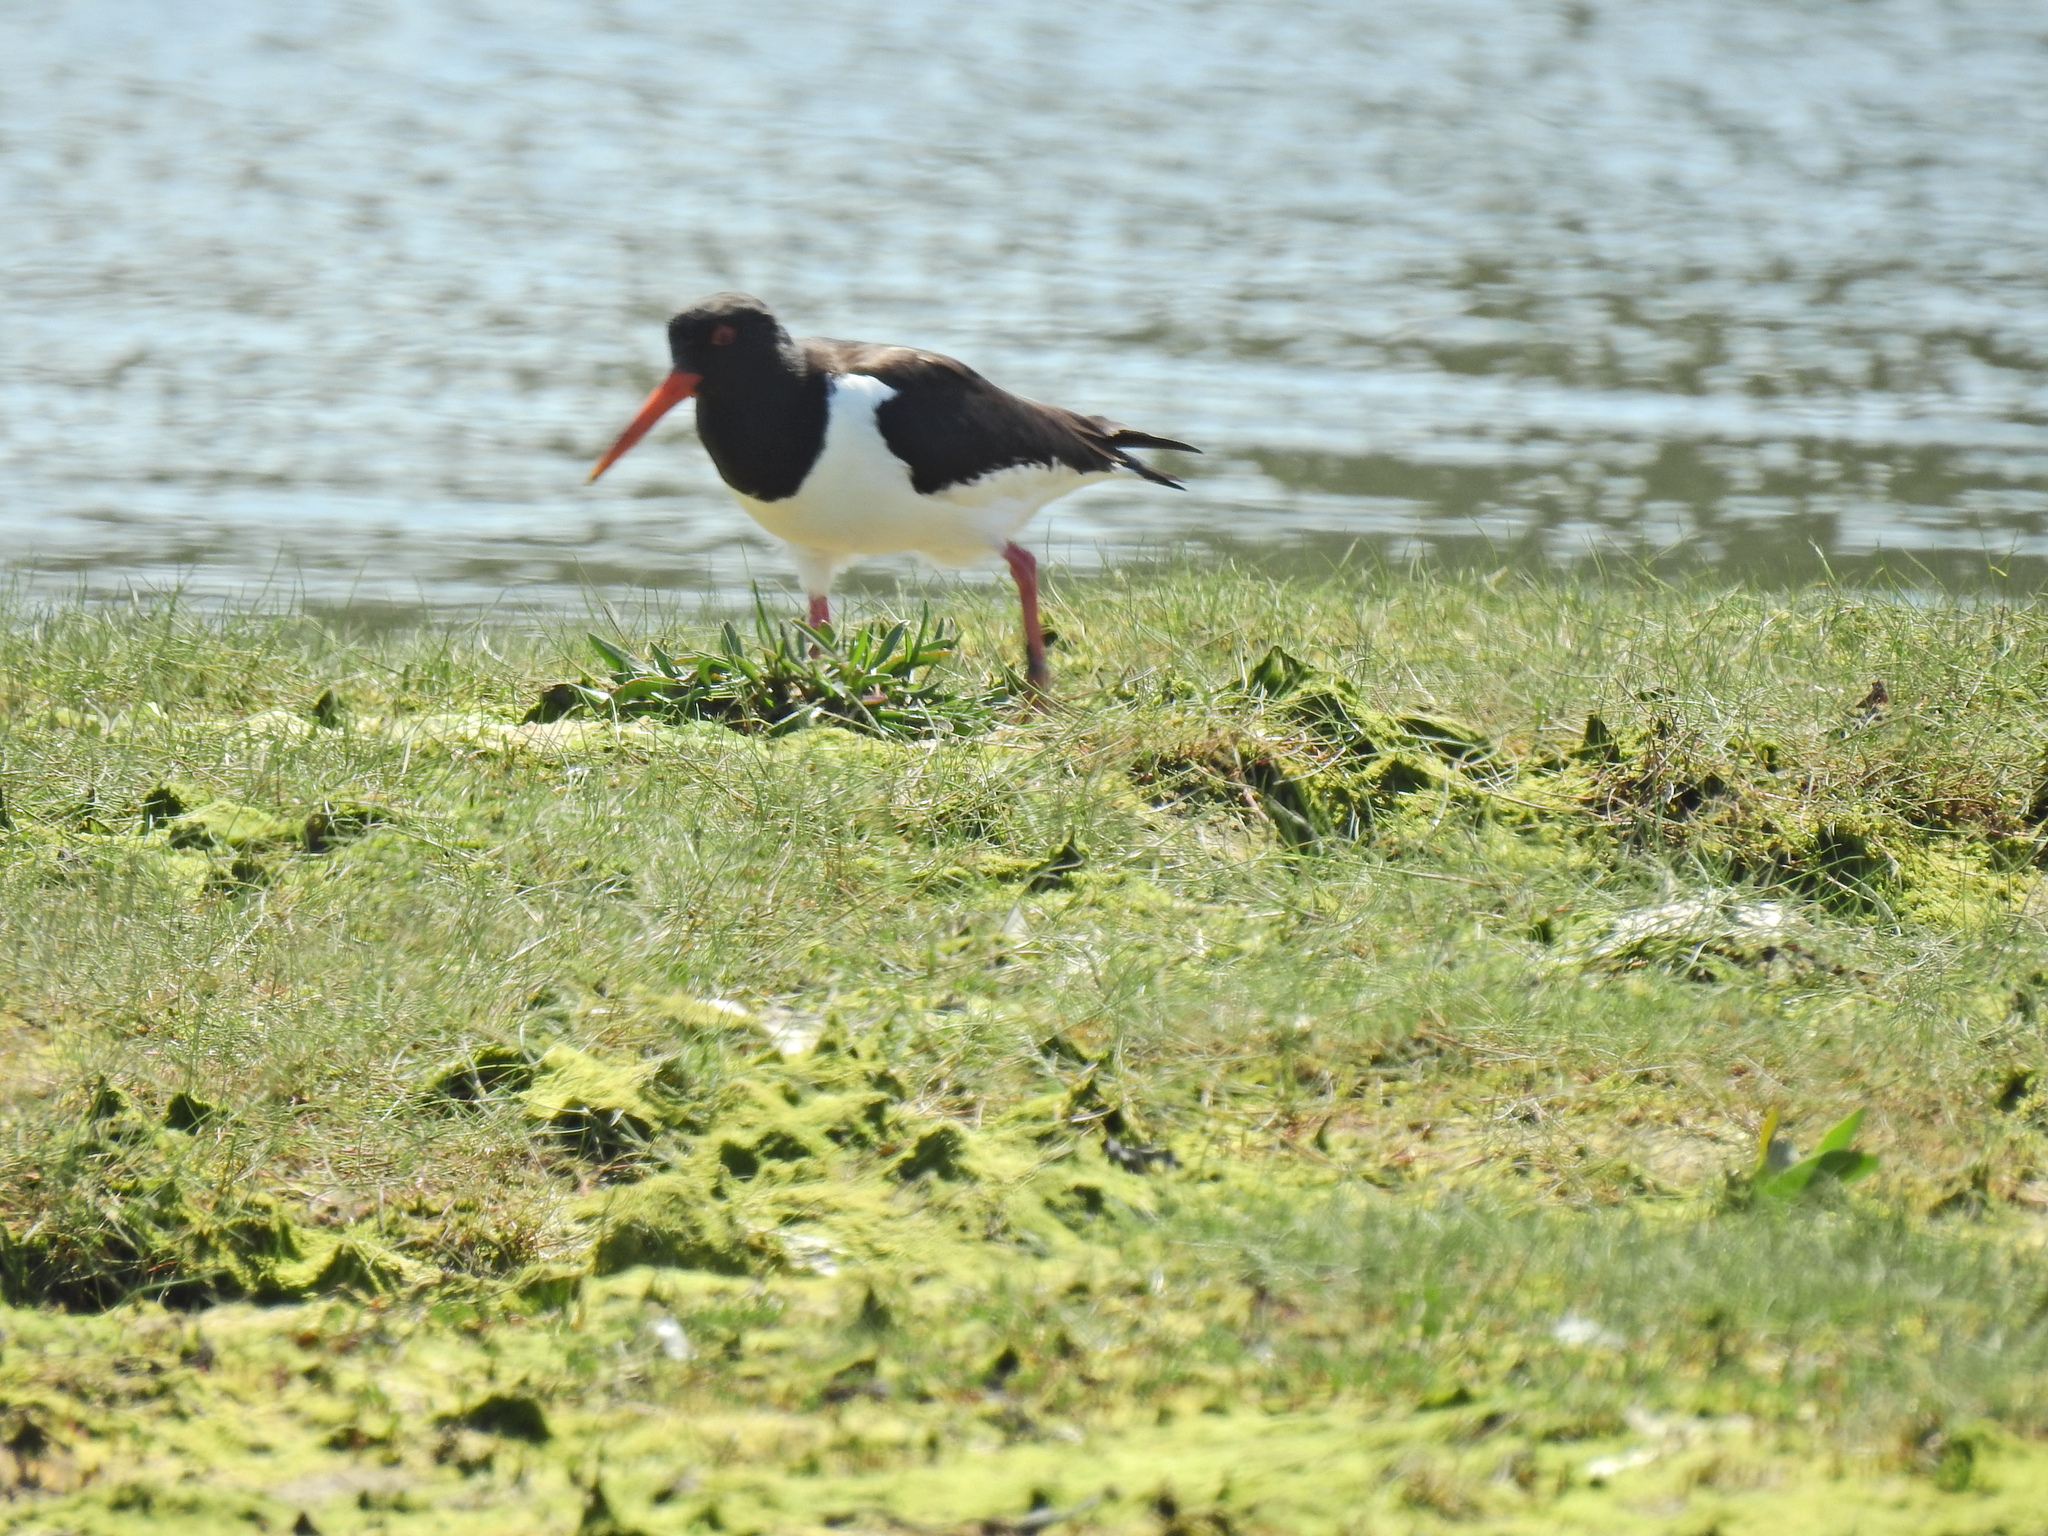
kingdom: Animalia
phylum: Chordata
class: Aves
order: Charadriiformes
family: Haematopodidae
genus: Haematopus
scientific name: Haematopus ostralegus
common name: Eurasian oystercatcher
